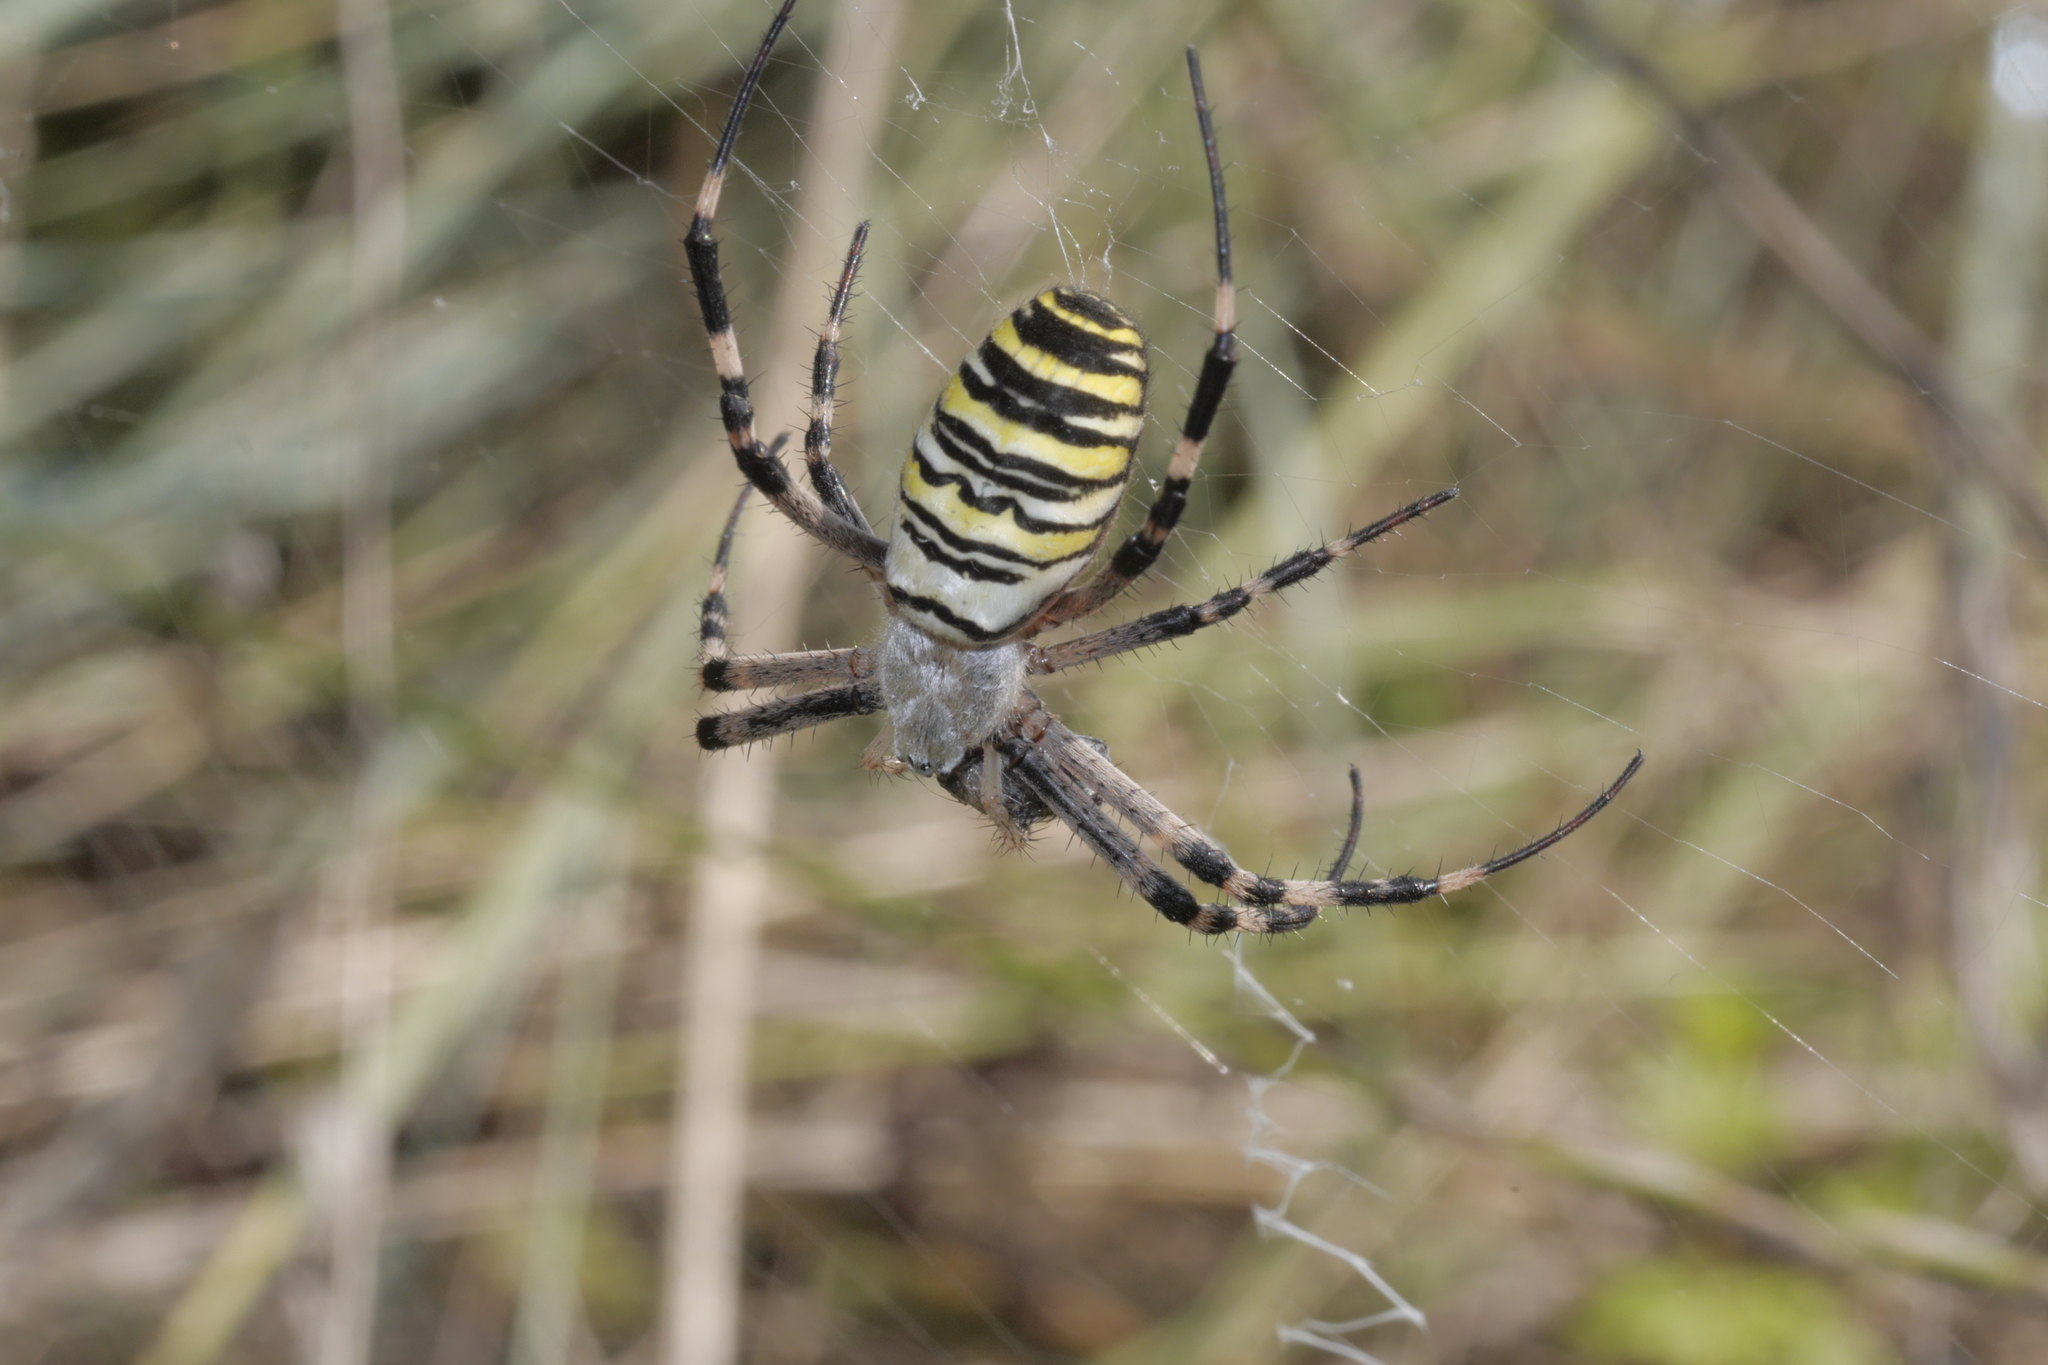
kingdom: Animalia
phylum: Arthropoda
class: Arachnida
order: Araneae
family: Araneidae
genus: Argiope
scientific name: Argiope bruennichi
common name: Wasp spider
